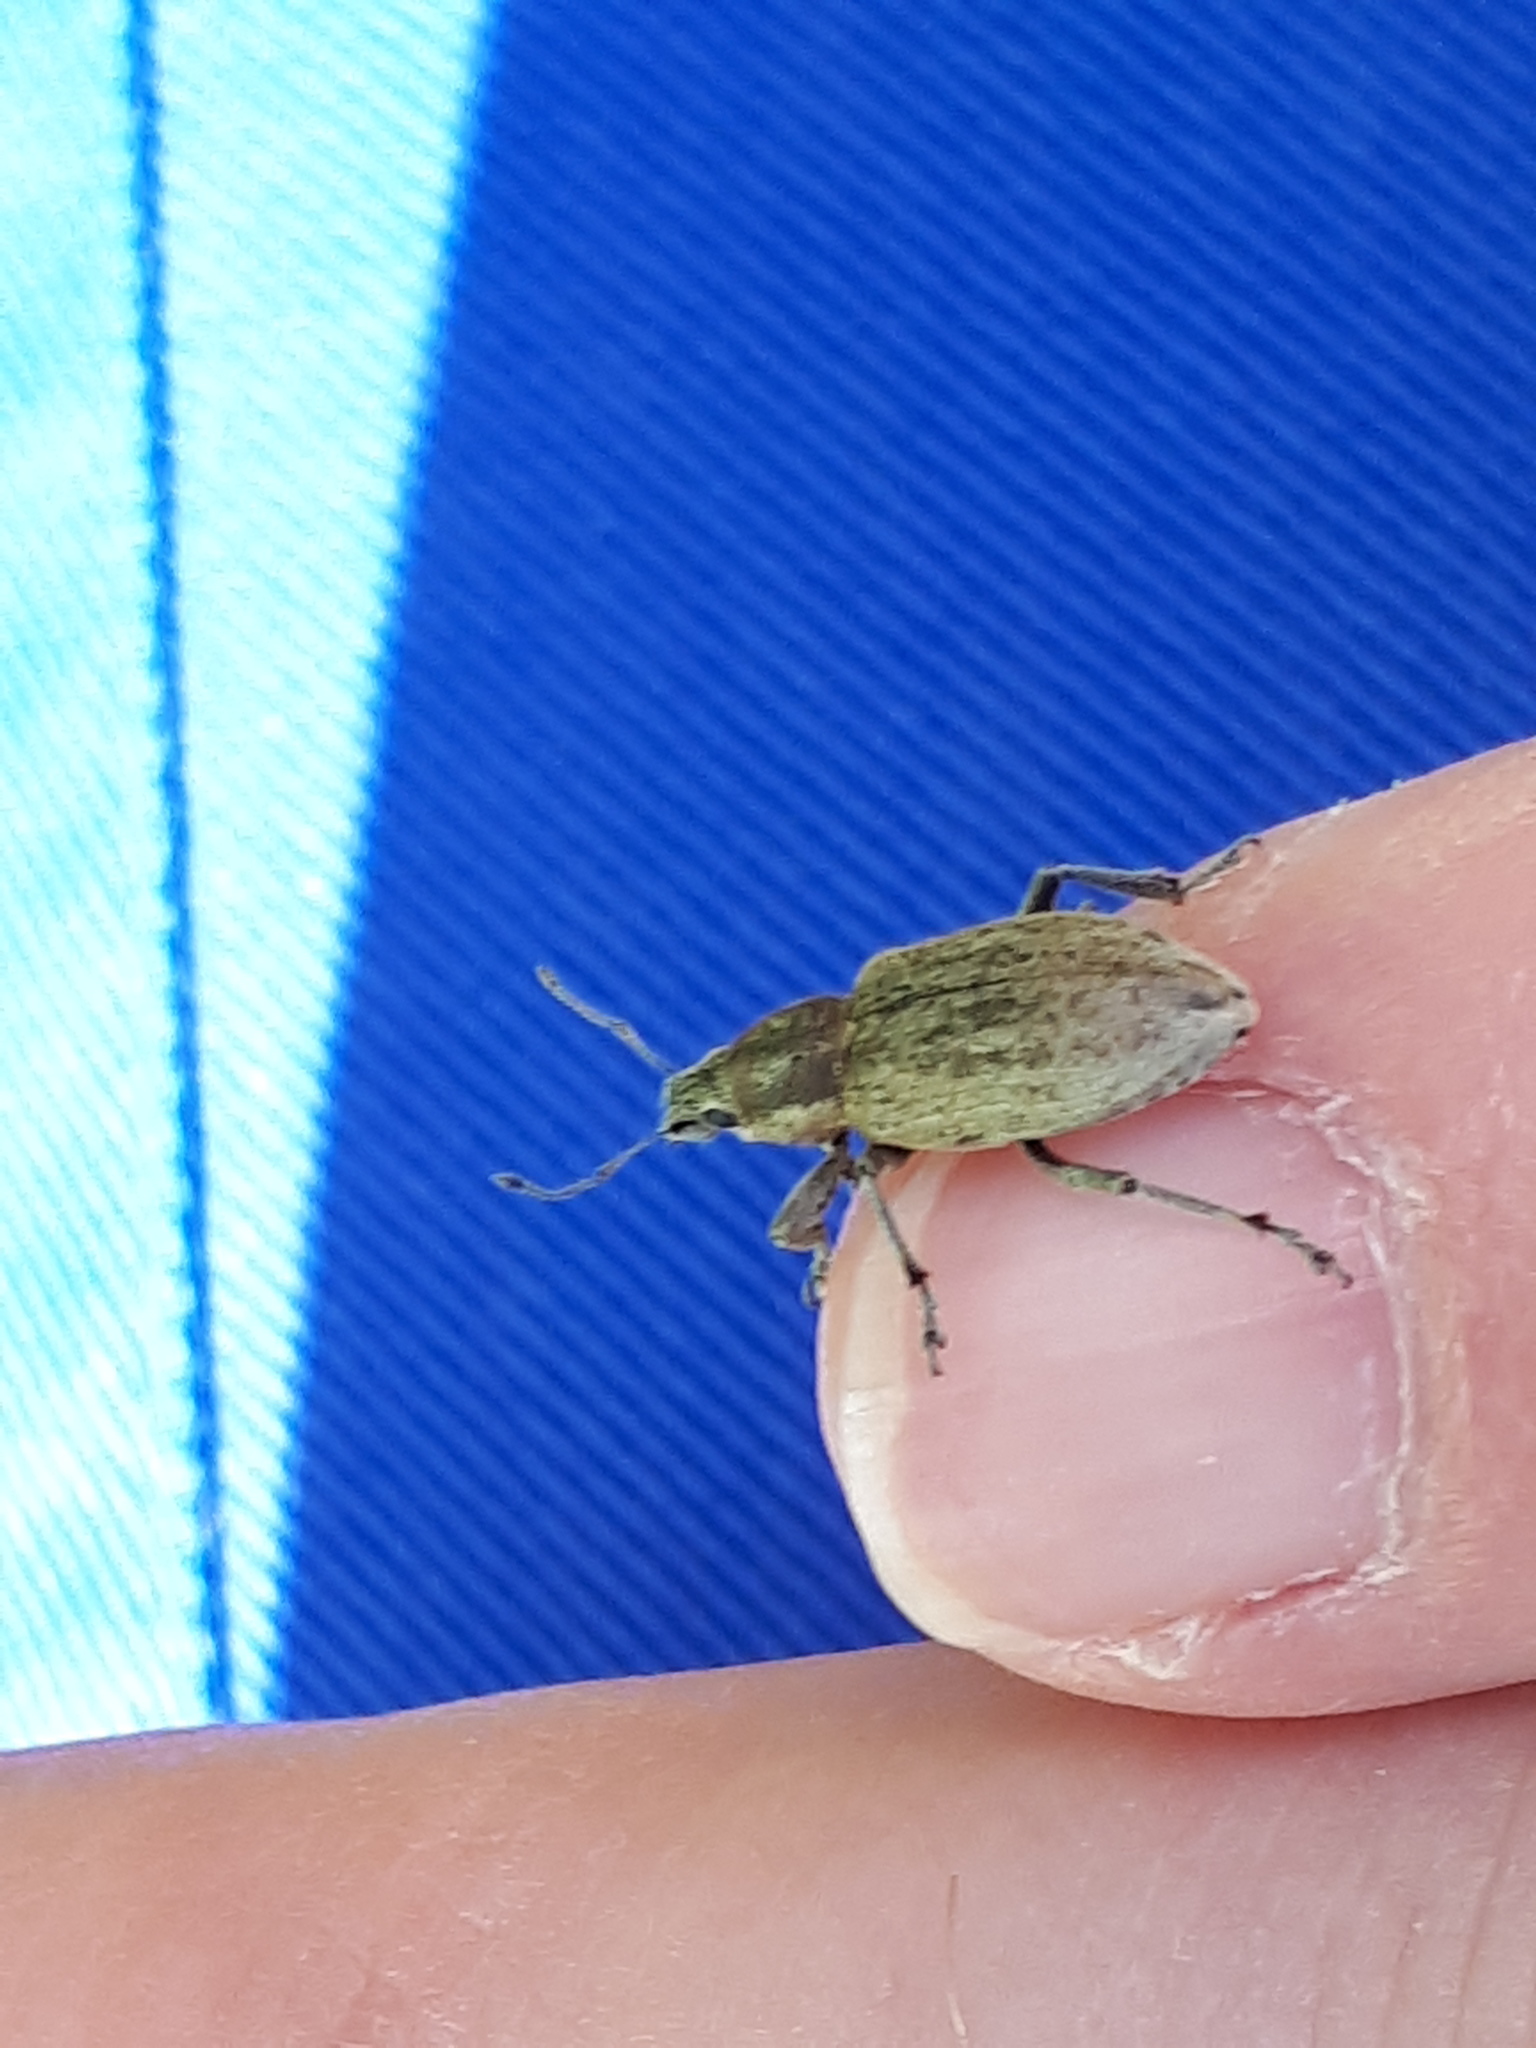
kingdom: Animalia
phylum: Arthropoda
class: Insecta
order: Coleoptera
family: Curculionidae
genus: Tanymecus
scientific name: Tanymecus palliatus
